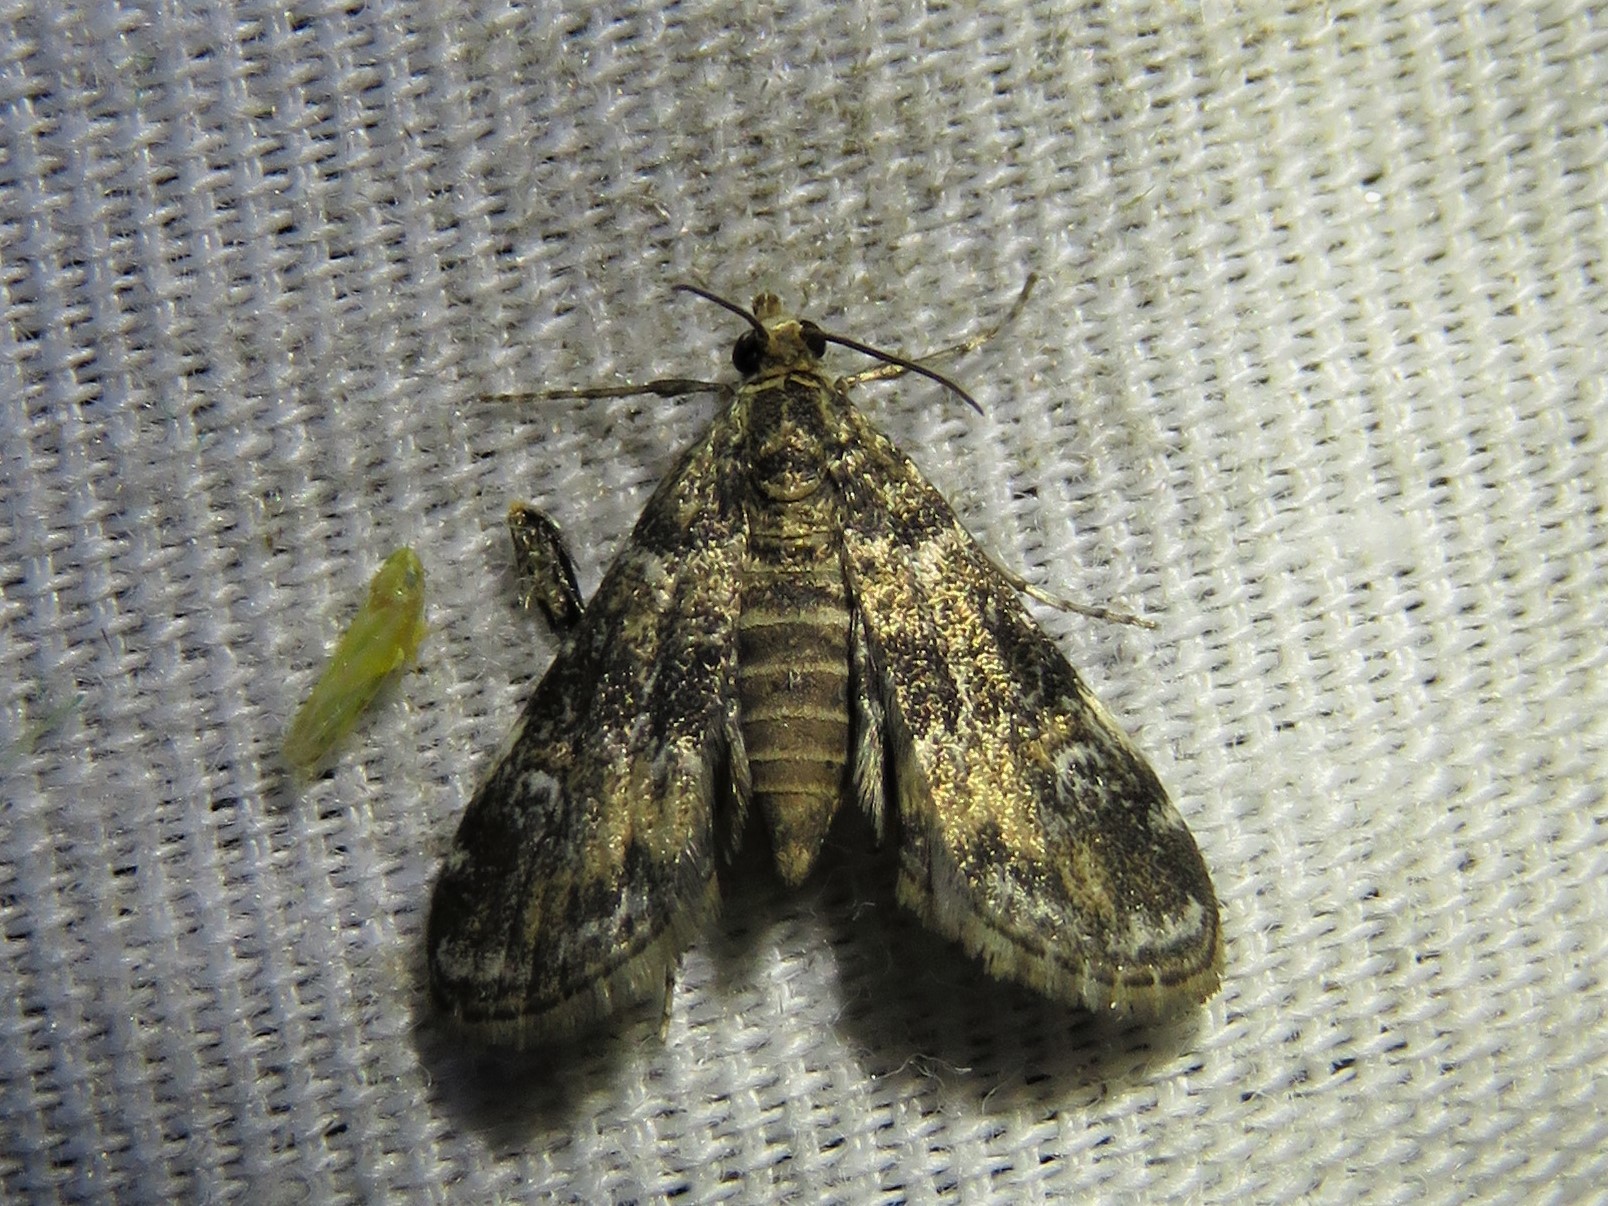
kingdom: Animalia
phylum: Arthropoda
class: Insecta
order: Lepidoptera
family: Crambidae
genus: Elophila
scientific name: Elophila obliteralis
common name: Waterlily leafcutter moth
